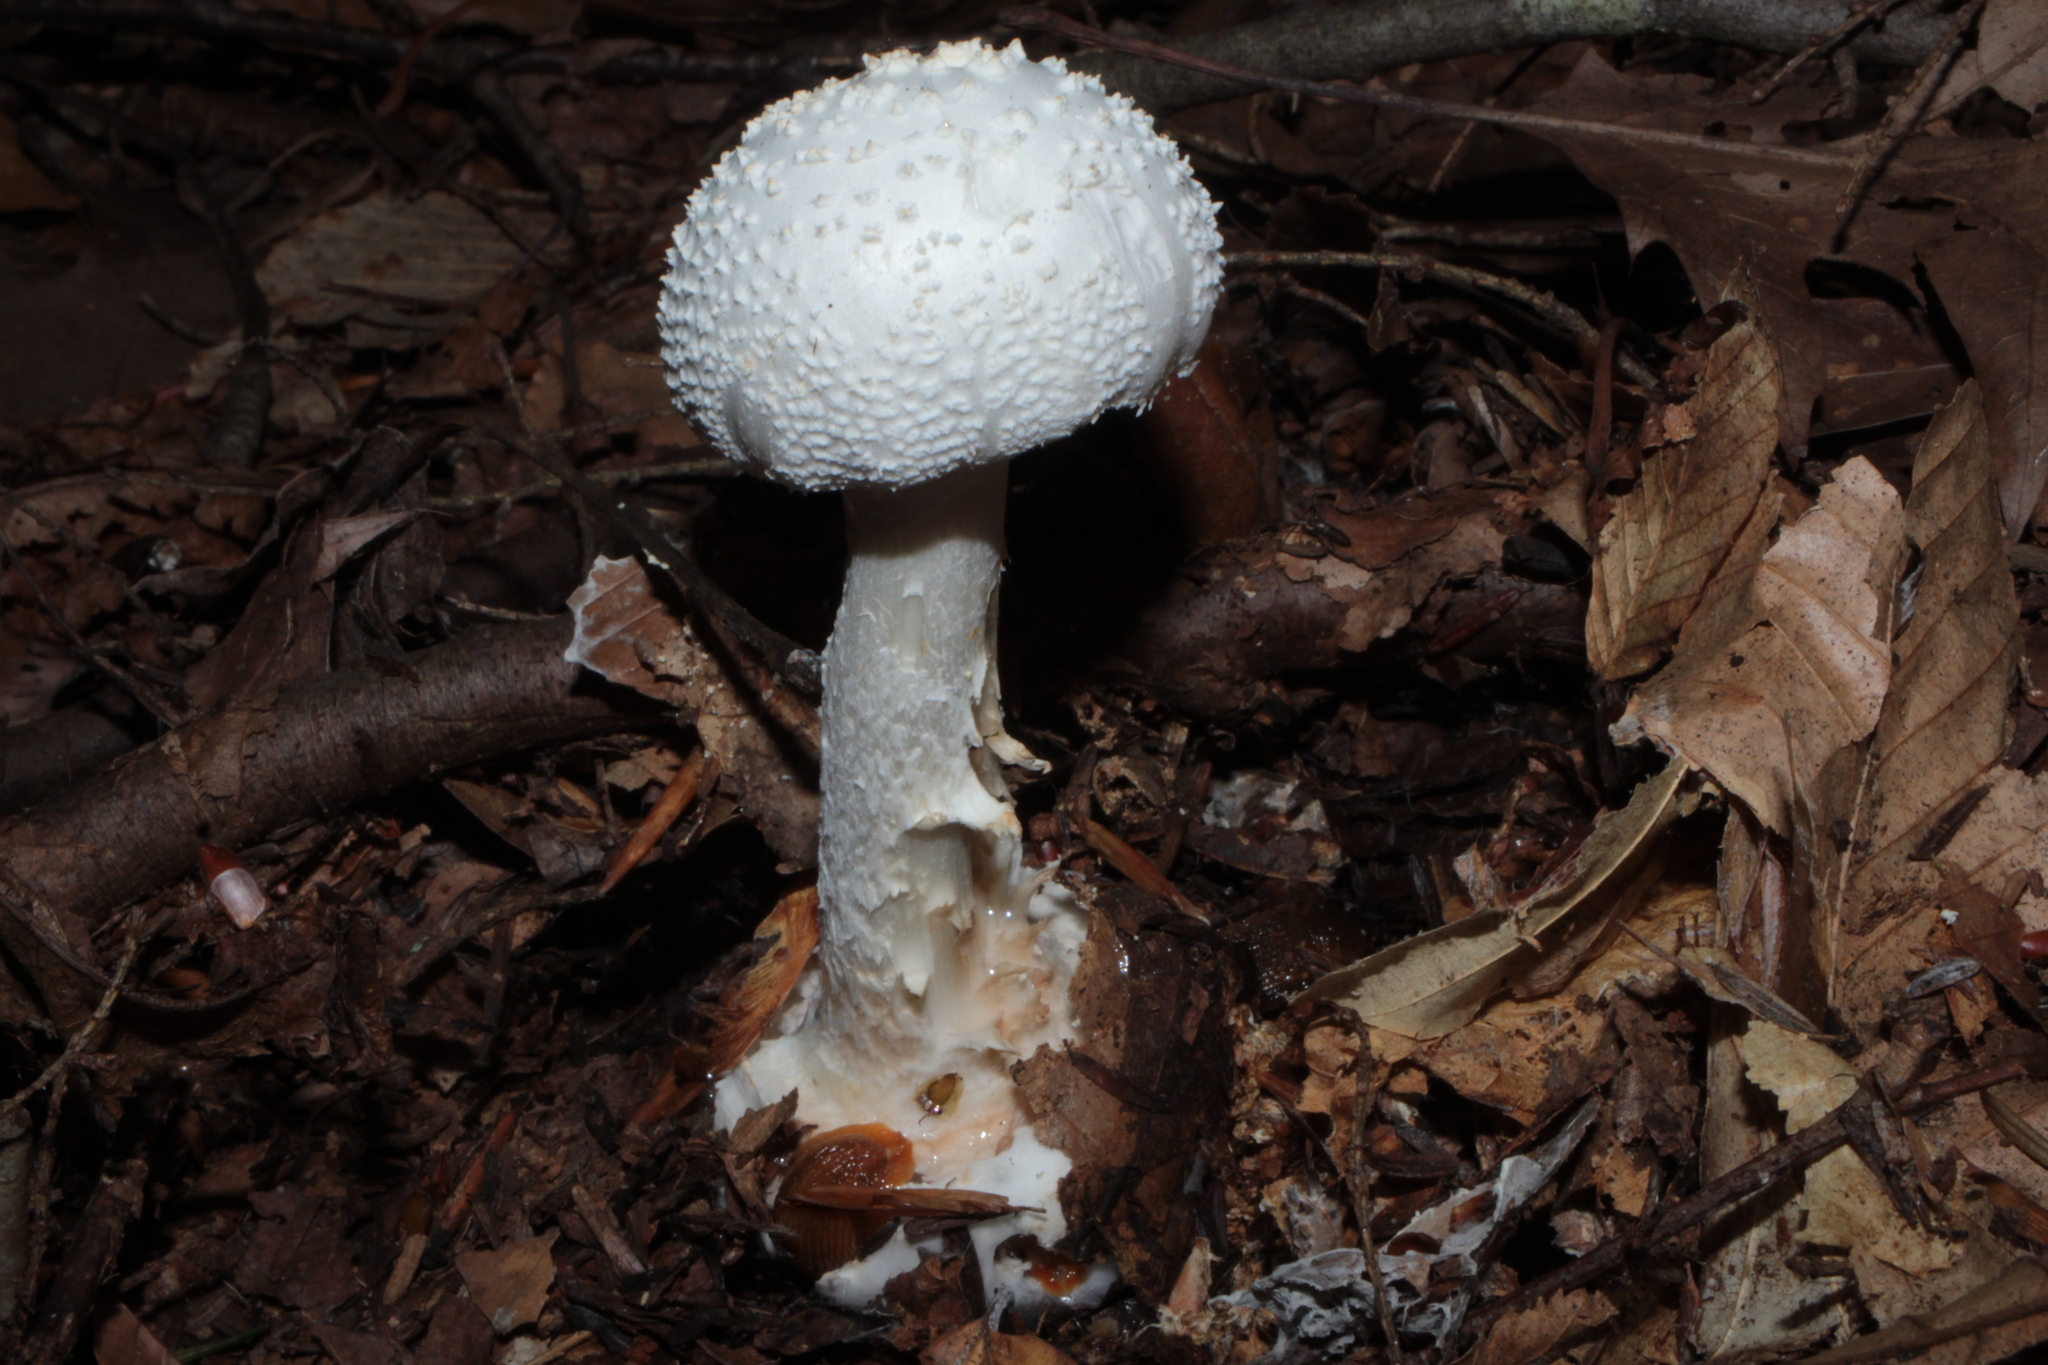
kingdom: Fungi
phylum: Basidiomycota
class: Agaricomycetes
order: Agaricales
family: Amanitaceae
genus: Amanita
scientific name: Amanita abrupta
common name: American abrupt-bulbed lepidella
